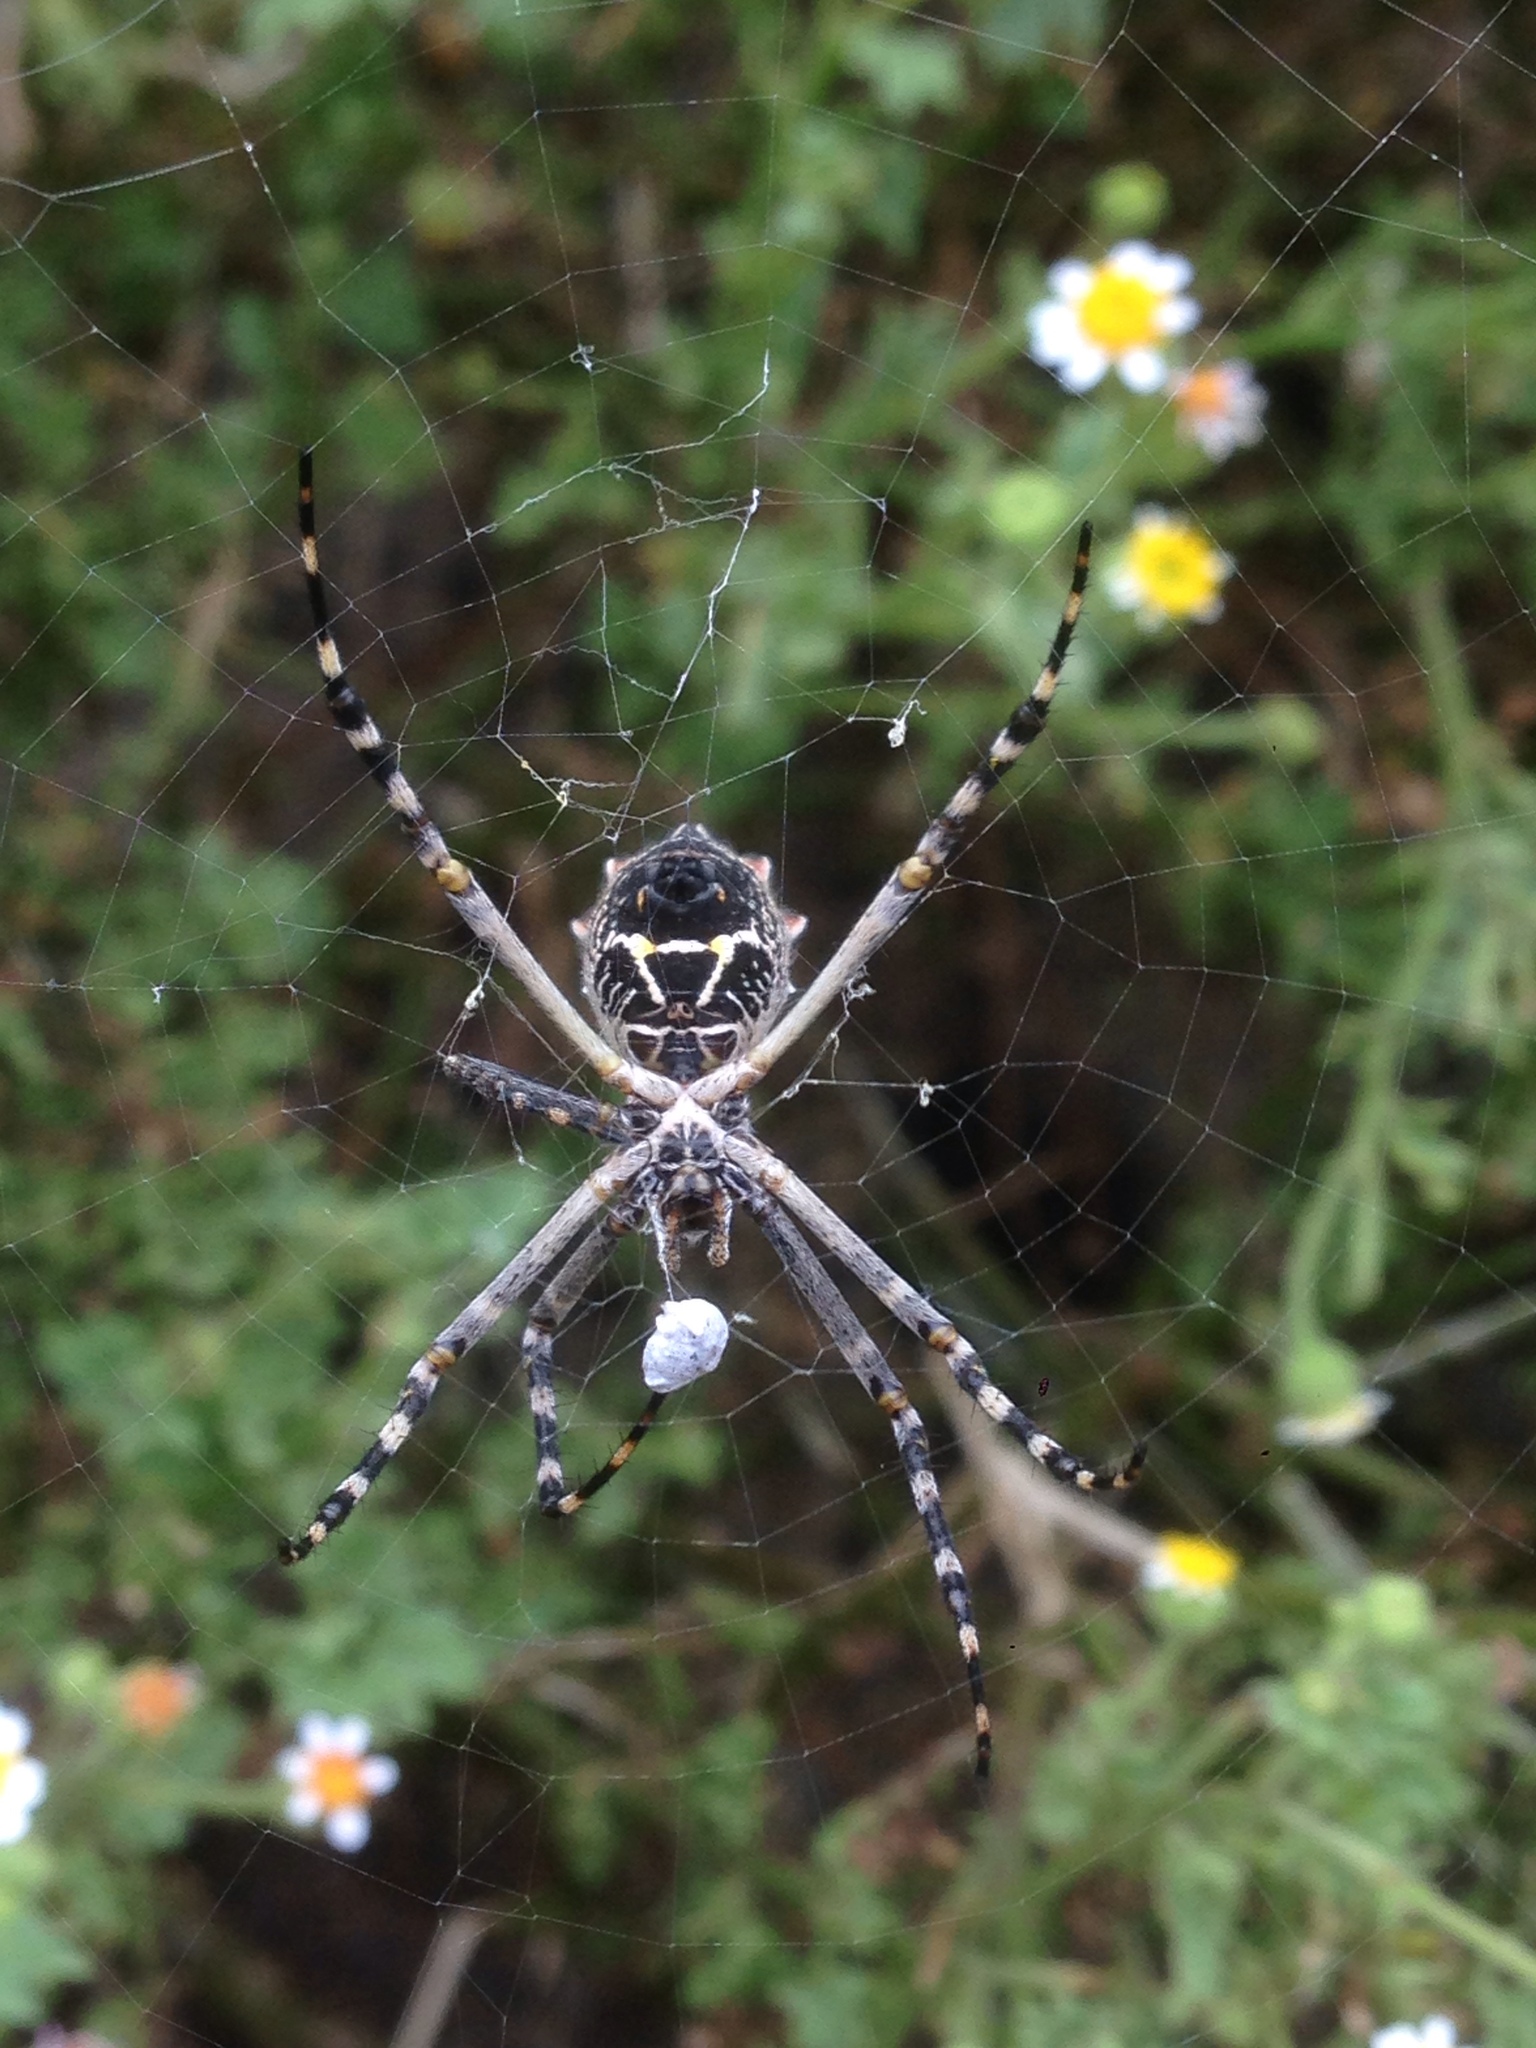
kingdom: Animalia
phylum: Arthropoda
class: Arachnida
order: Araneae
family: Araneidae
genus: Argiope
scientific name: Argiope argentata
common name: Orb weavers
